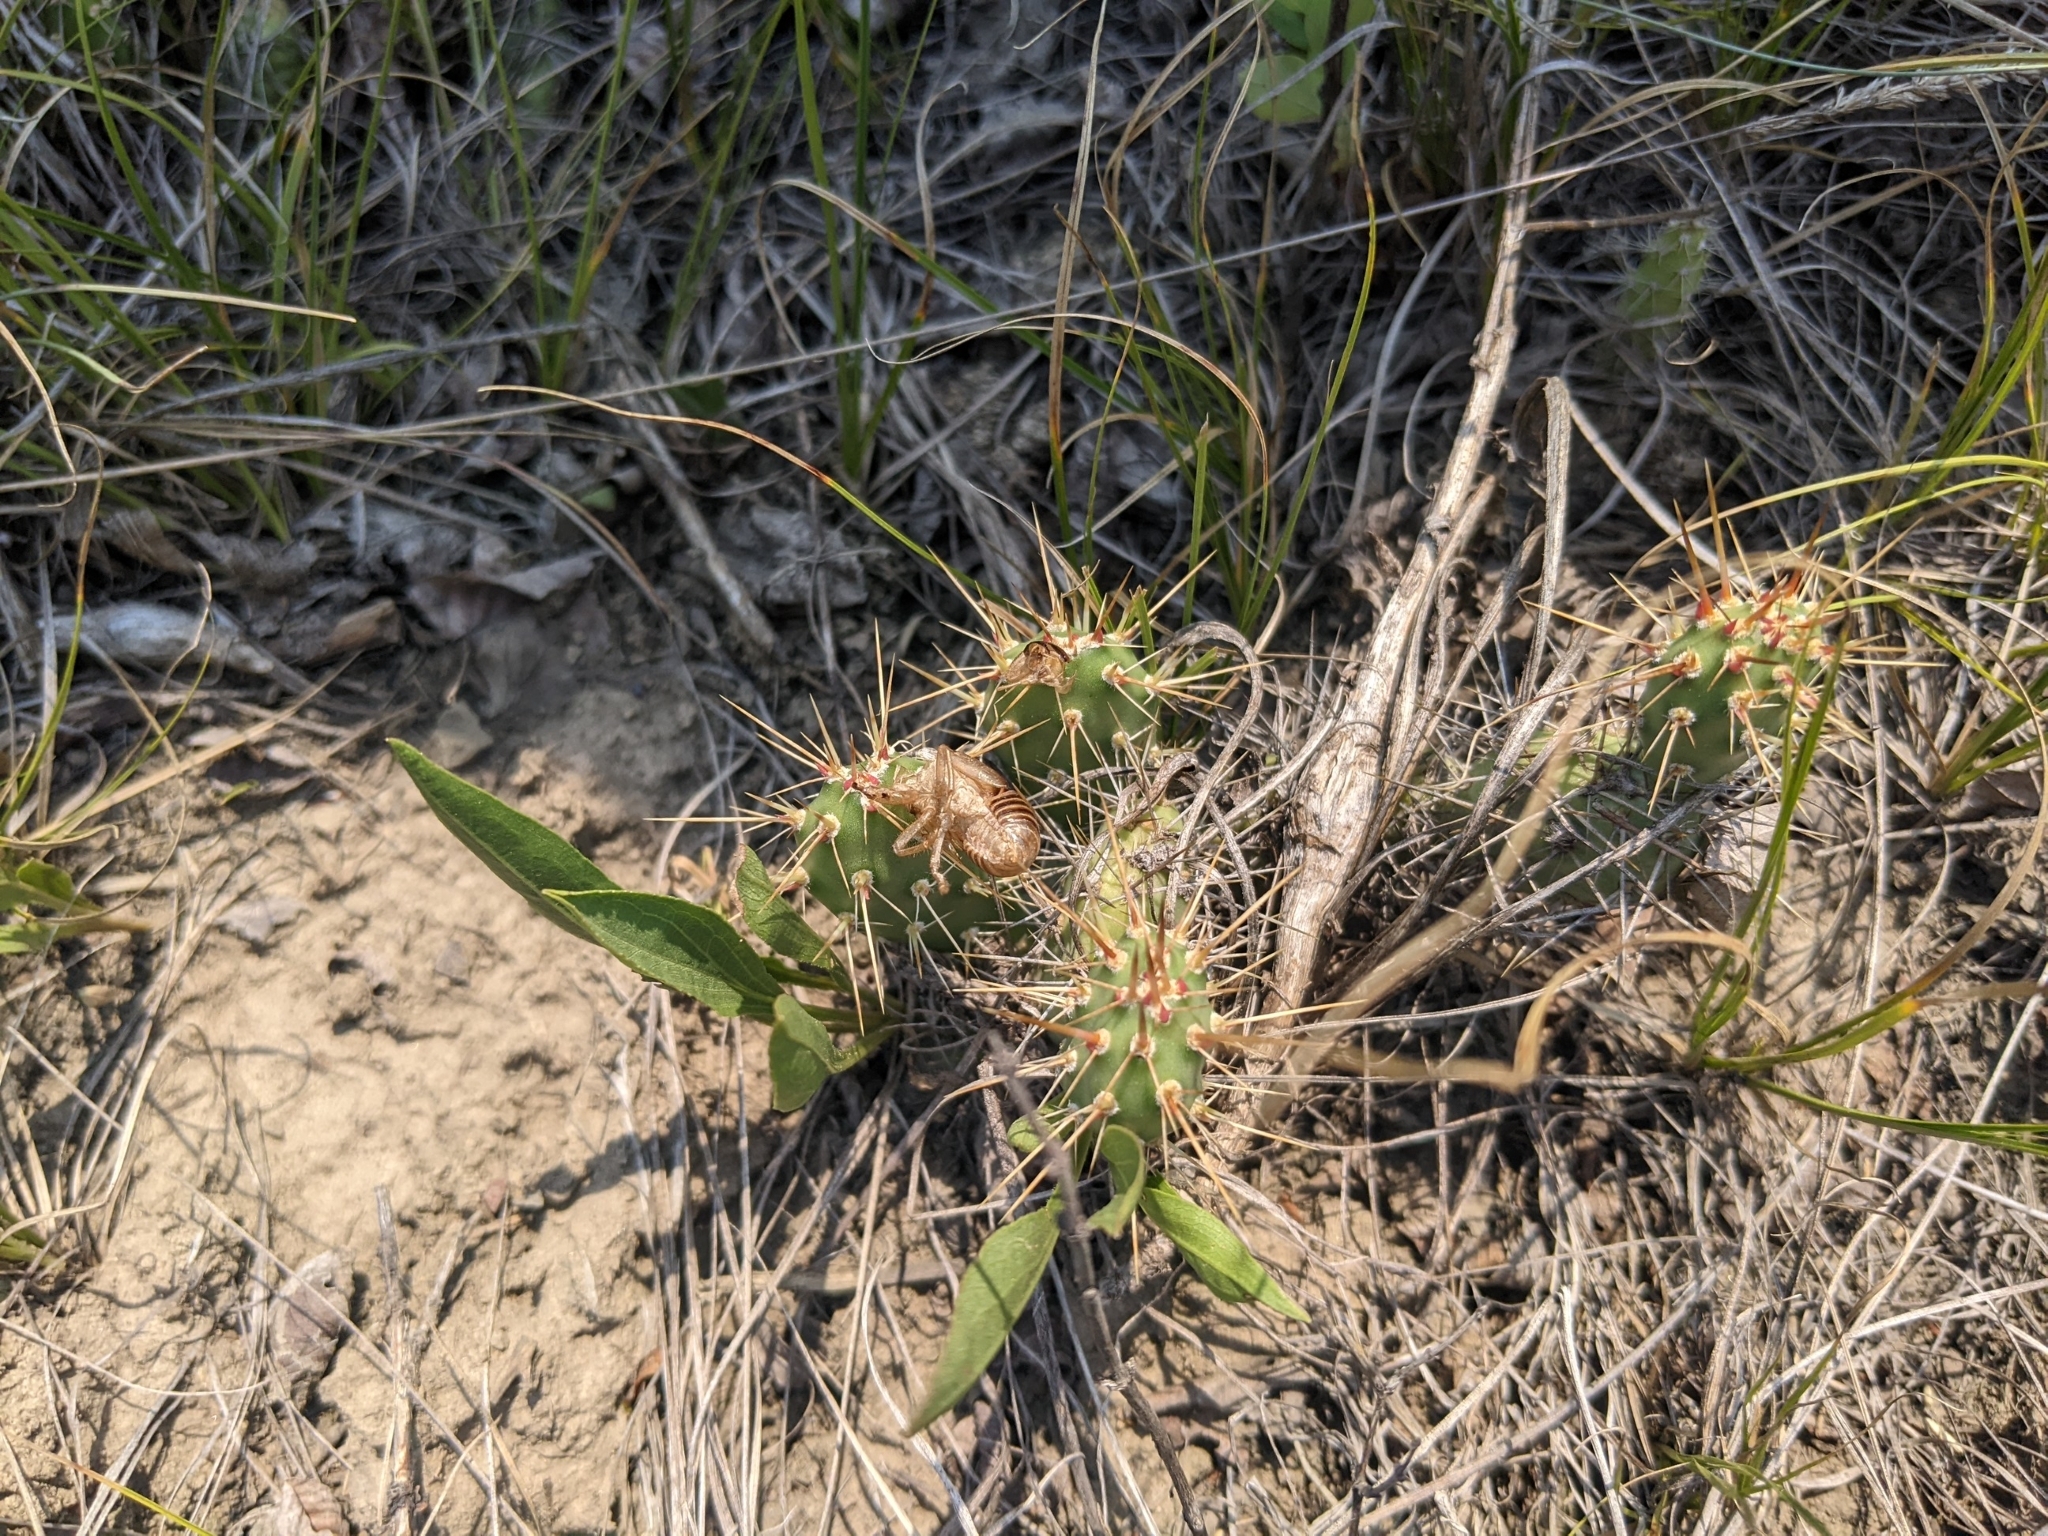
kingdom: Plantae
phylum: Tracheophyta
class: Magnoliopsida
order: Caryophyllales
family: Cactaceae
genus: Opuntia
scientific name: Opuntia fragilis
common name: Brittle cactus
